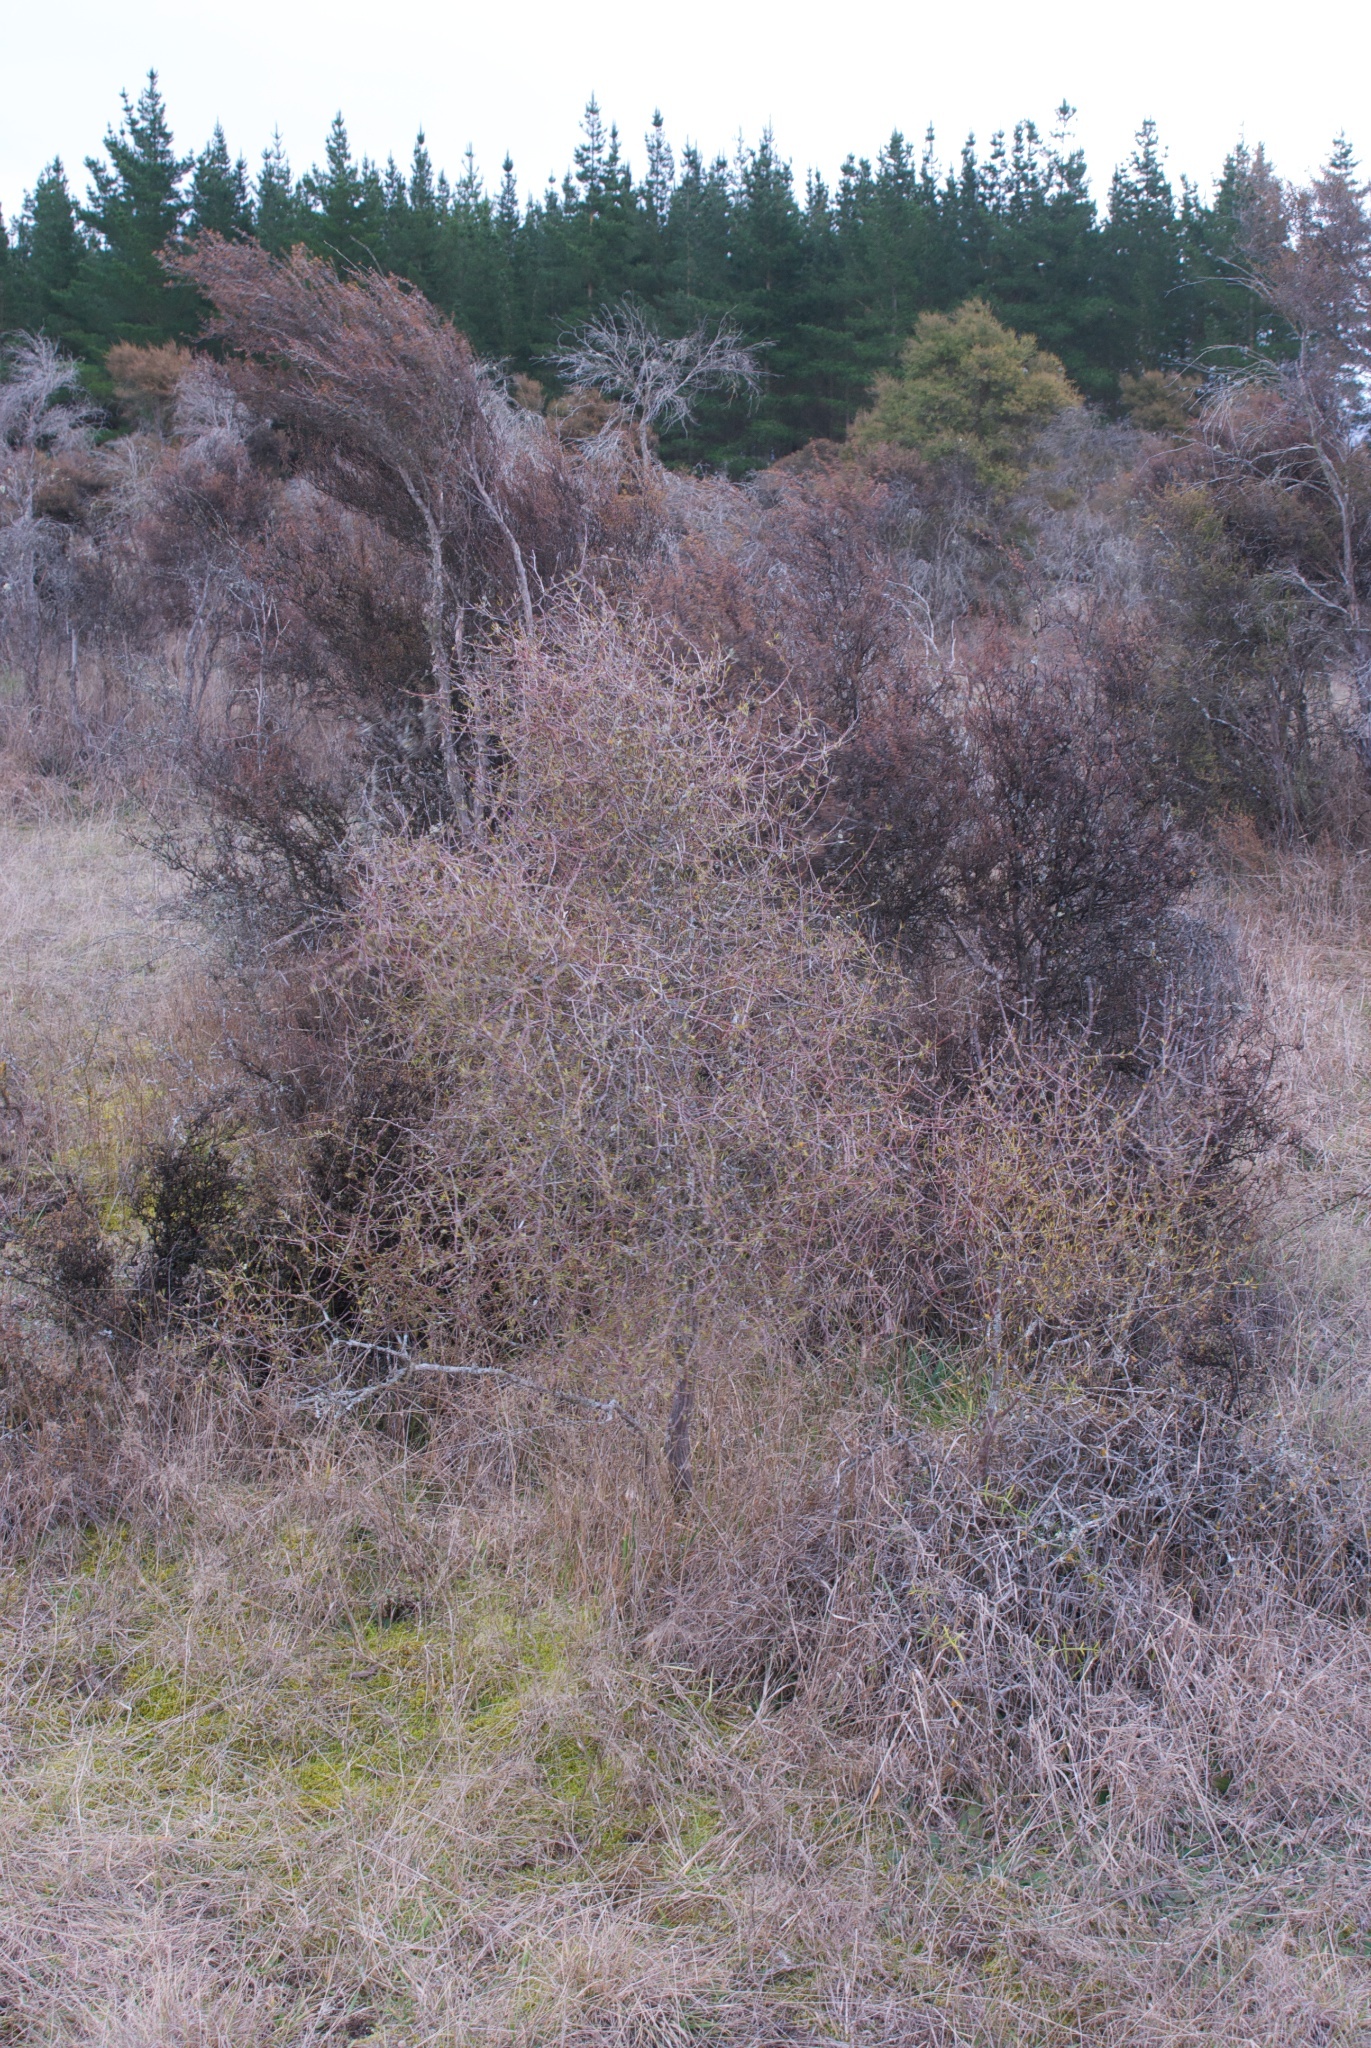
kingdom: Plantae
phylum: Tracheophyta
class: Magnoliopsida
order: Gentianales
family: Rubiaceae
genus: Coprosma
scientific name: Coprosma intertexta
